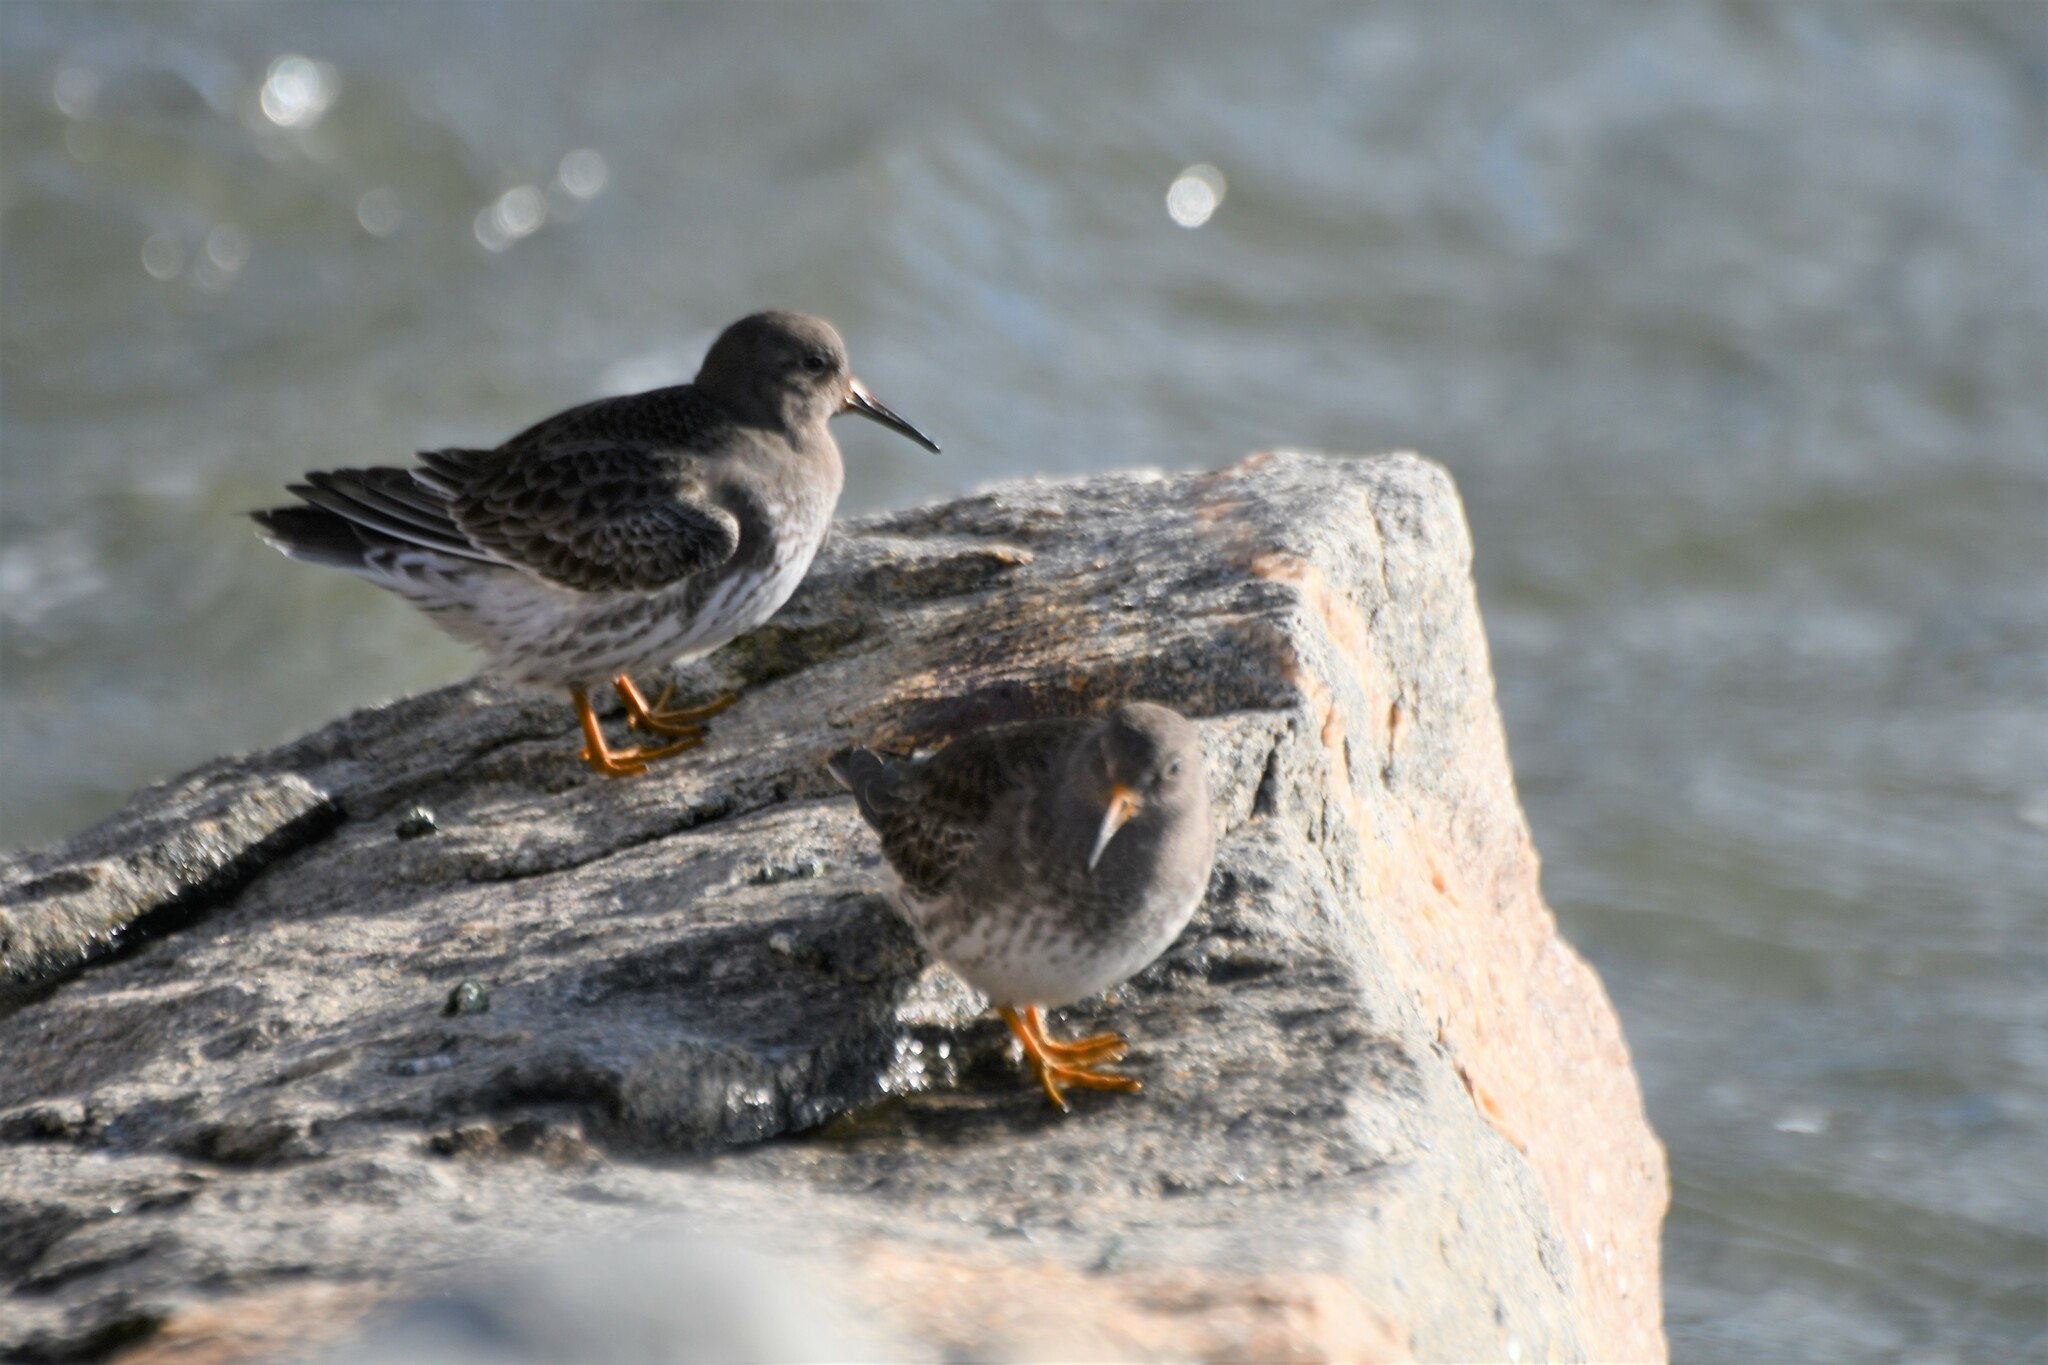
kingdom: Animalia
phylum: Chordata
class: Aves
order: Charadriiformes
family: Scolopacidae
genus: Calidris
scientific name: Calidris maritima
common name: Purple sandpiper
